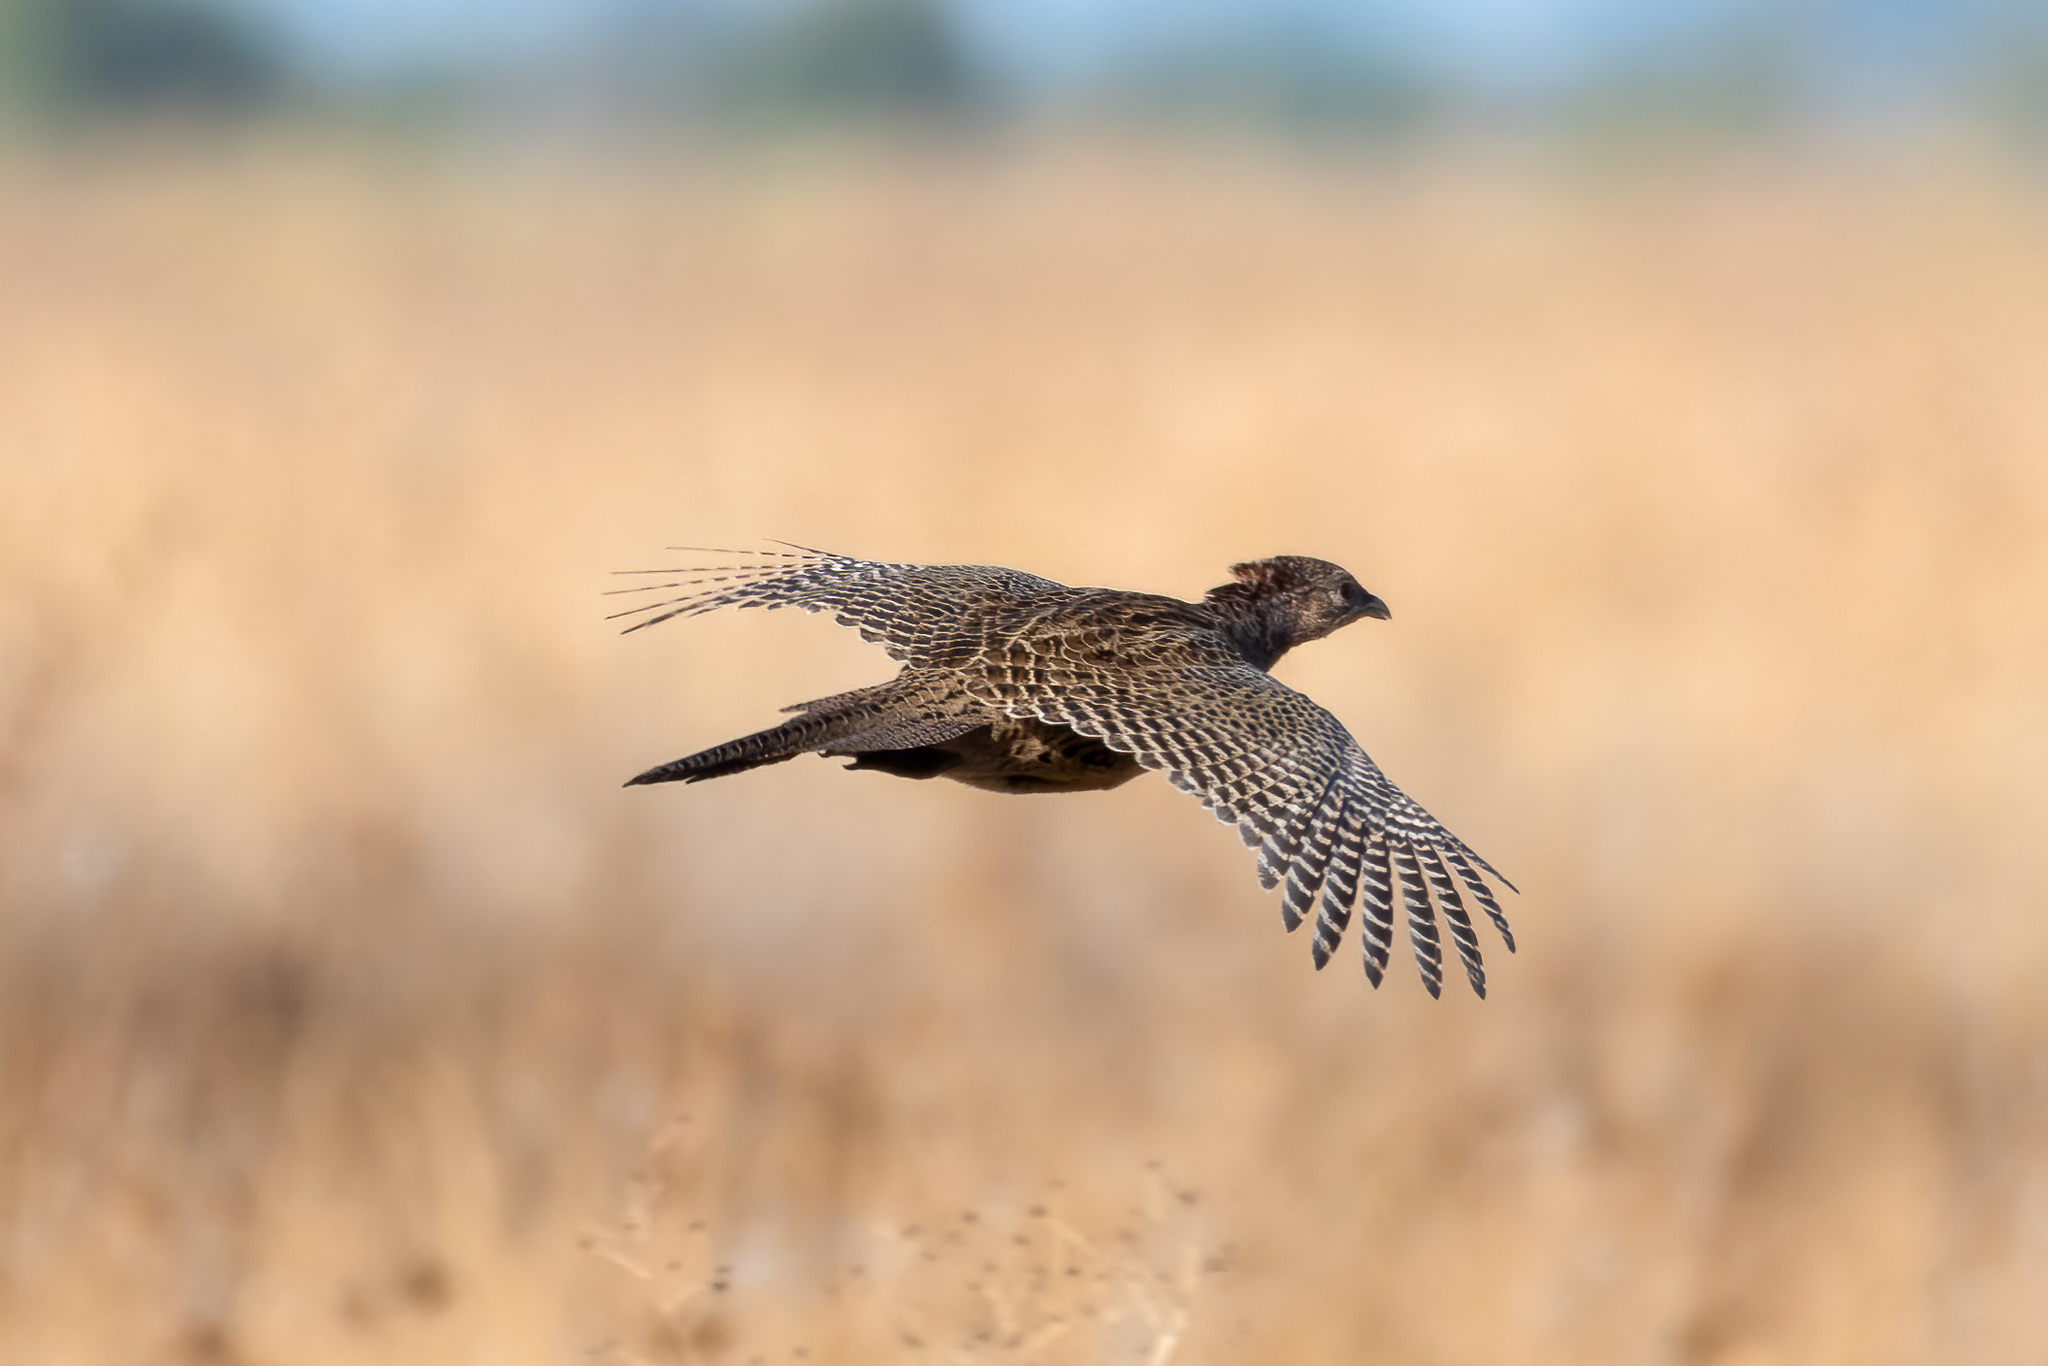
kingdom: Animalia
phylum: Chordata
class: Aves
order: Galliformes
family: Phasianidae
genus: Phasianus
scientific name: Phasianus colchicus
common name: Common pheasant
